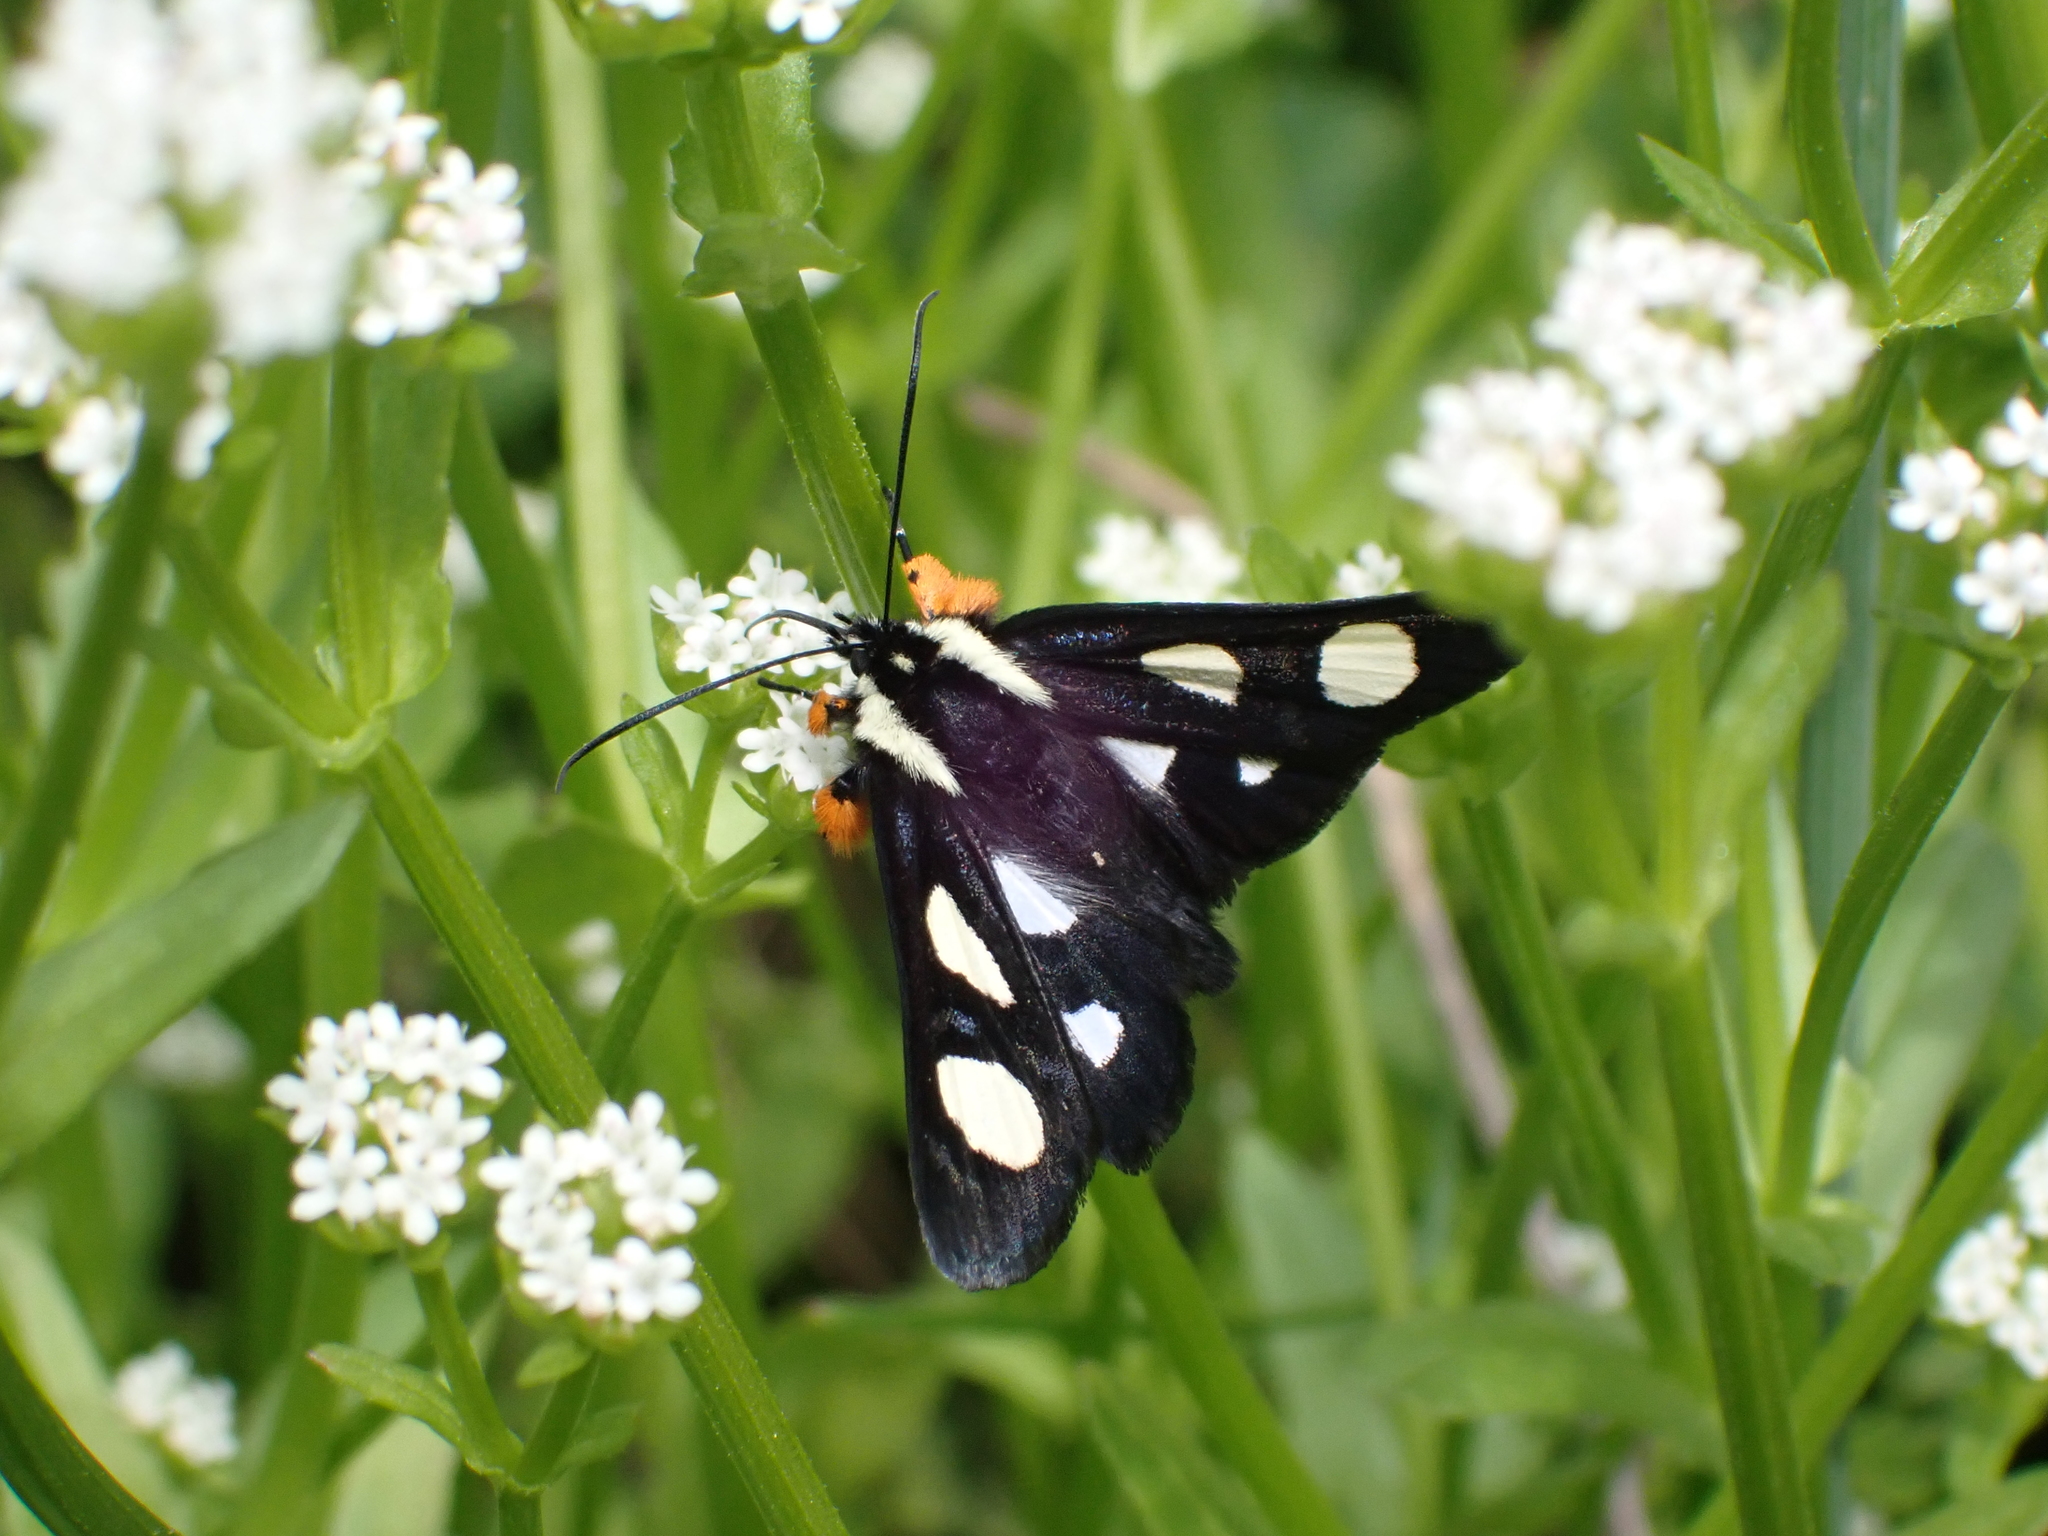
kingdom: Animalia
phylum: Arthropoda
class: Insecta
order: Lepidoptera
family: Noctuidae
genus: Alypia
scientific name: Alypia octomaculata
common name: Eight-spotted forester
